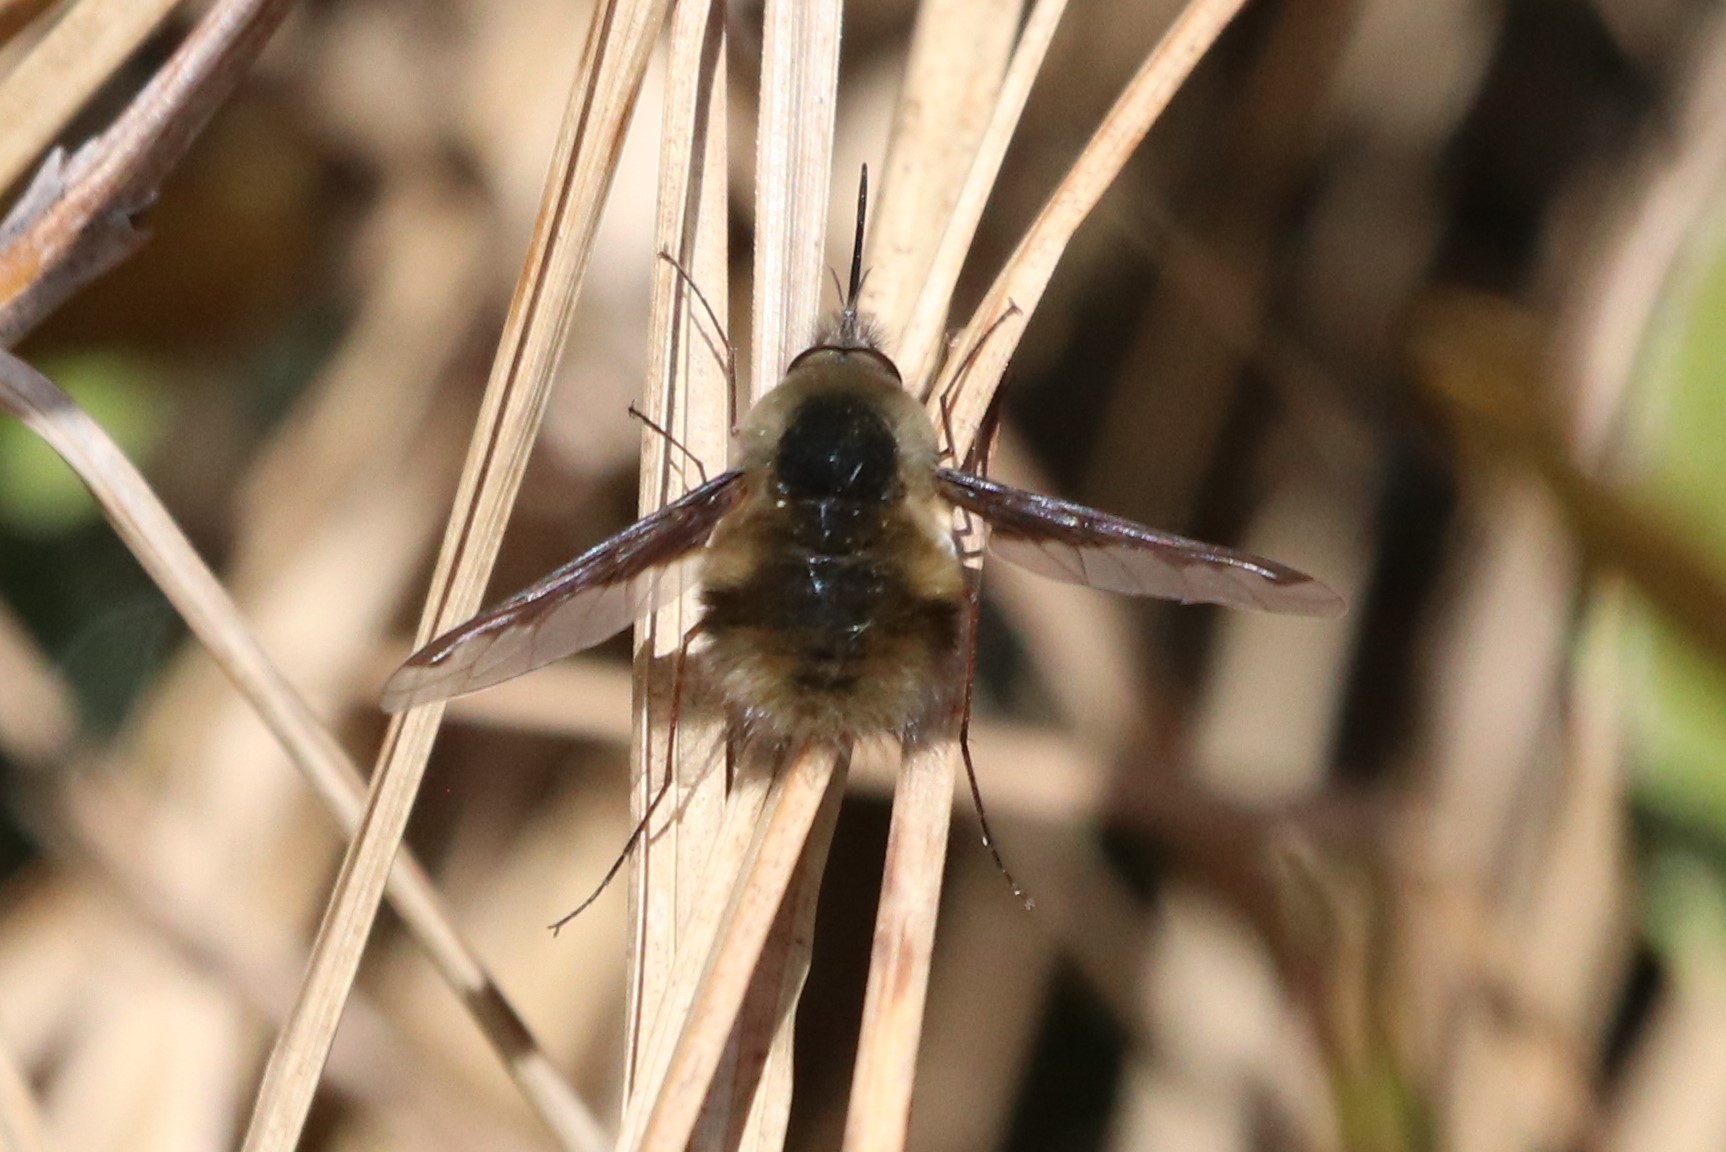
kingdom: Animalia
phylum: Arthropoda
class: Insecta
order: Diptera
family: Bombyliidae
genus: Bombylius
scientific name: Bombylius major
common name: Bee fly
